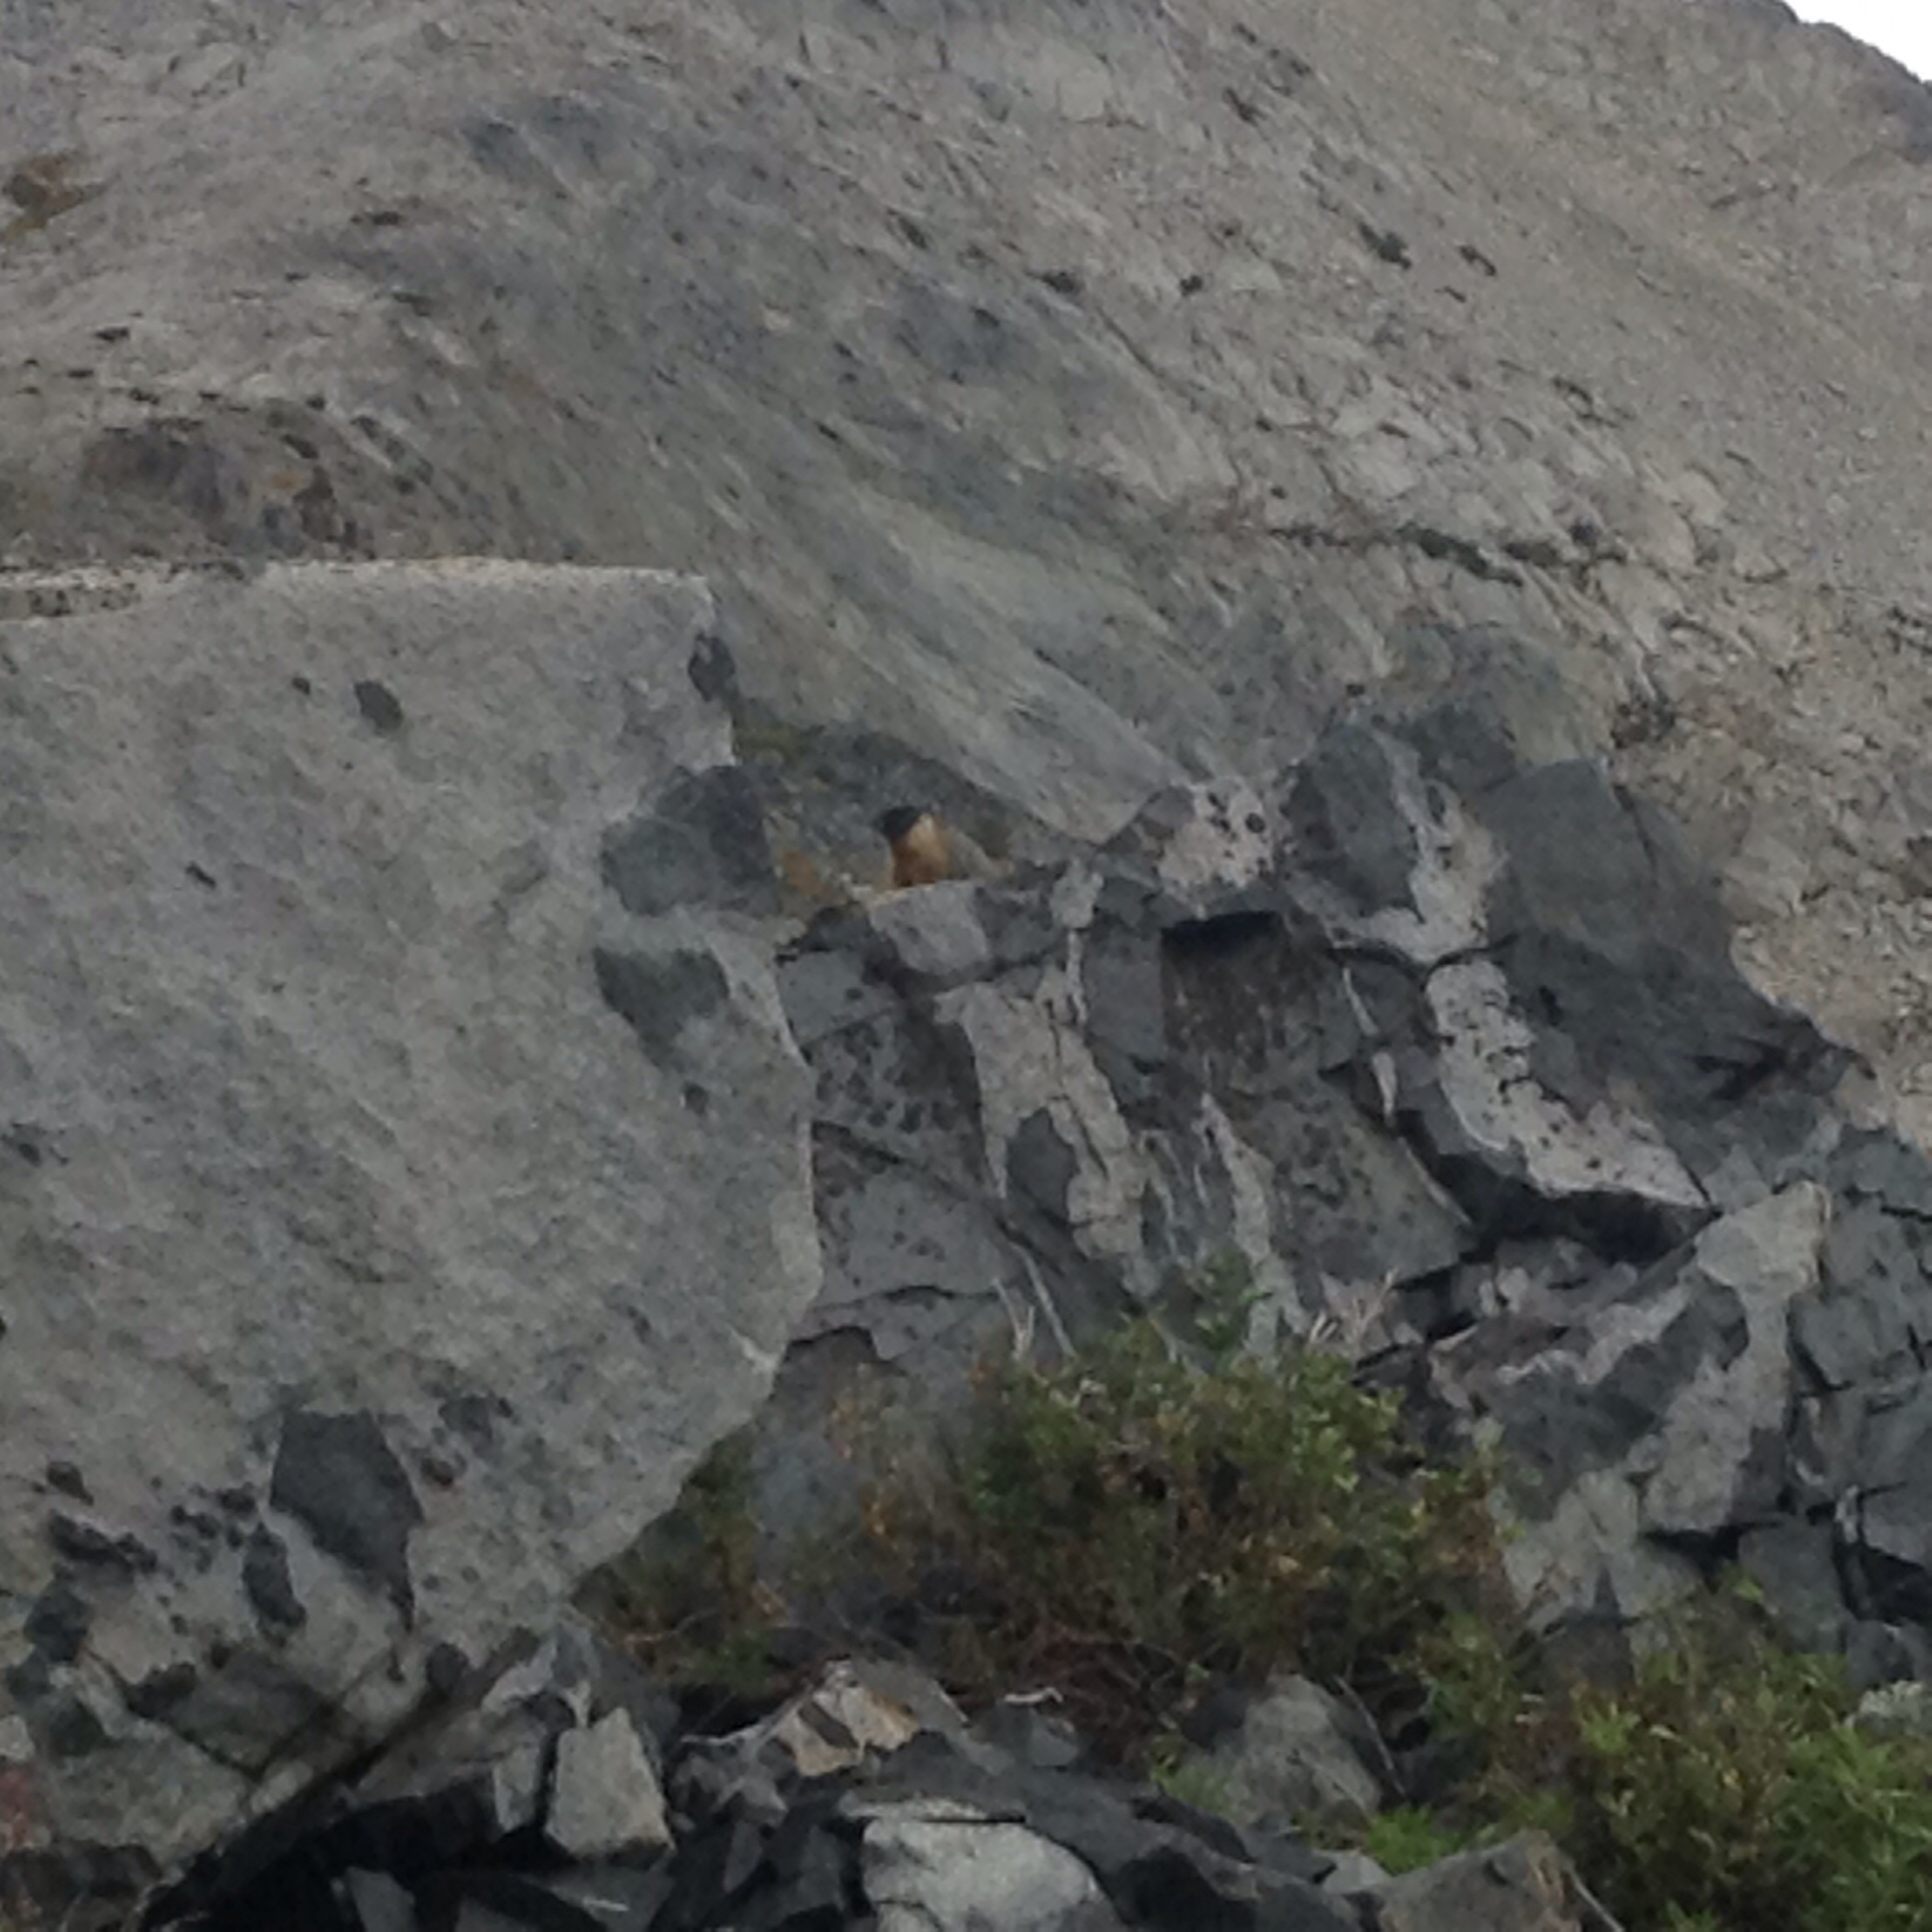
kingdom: Animalia
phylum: Chordata
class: Mammalia
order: Rodentia
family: Sciuridae
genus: Marmota
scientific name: Marmota flaviventris
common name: Yellow-bellied marmot
